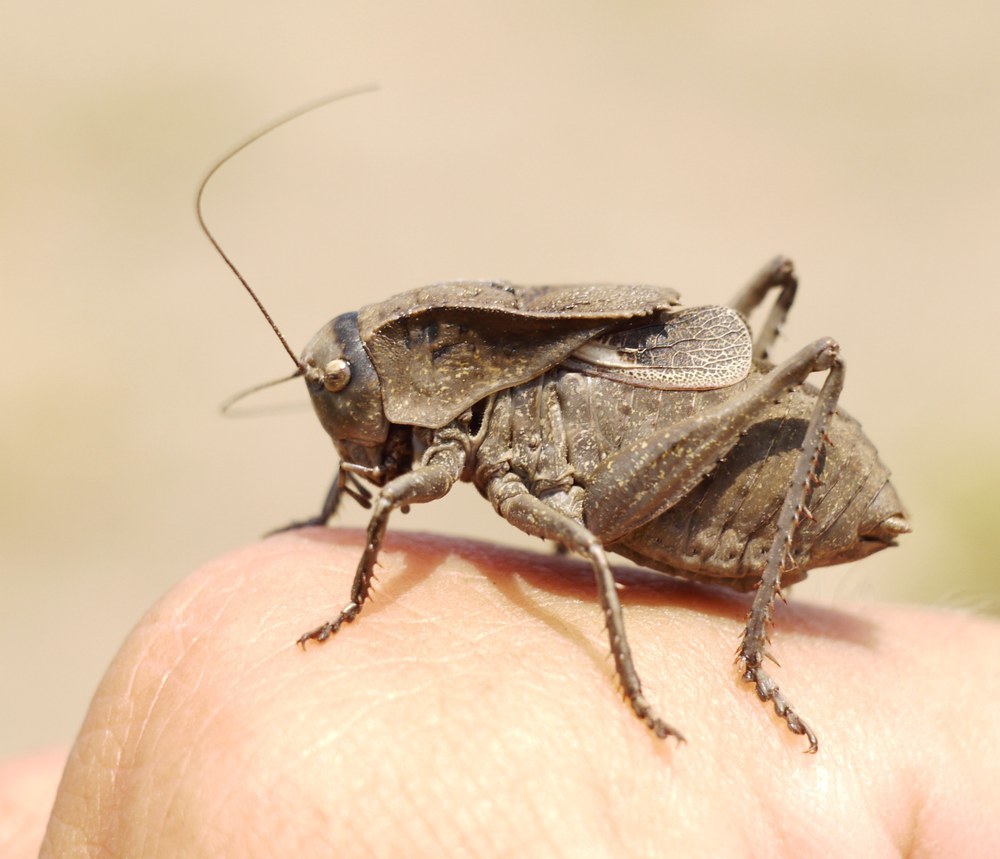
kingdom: Animalia
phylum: Arthropoda
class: Insecta
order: Orthoptera
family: Tettigoniidae
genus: Onconotus
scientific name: Onconotus servillei
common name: Southern barbed-wire bush-cricket
